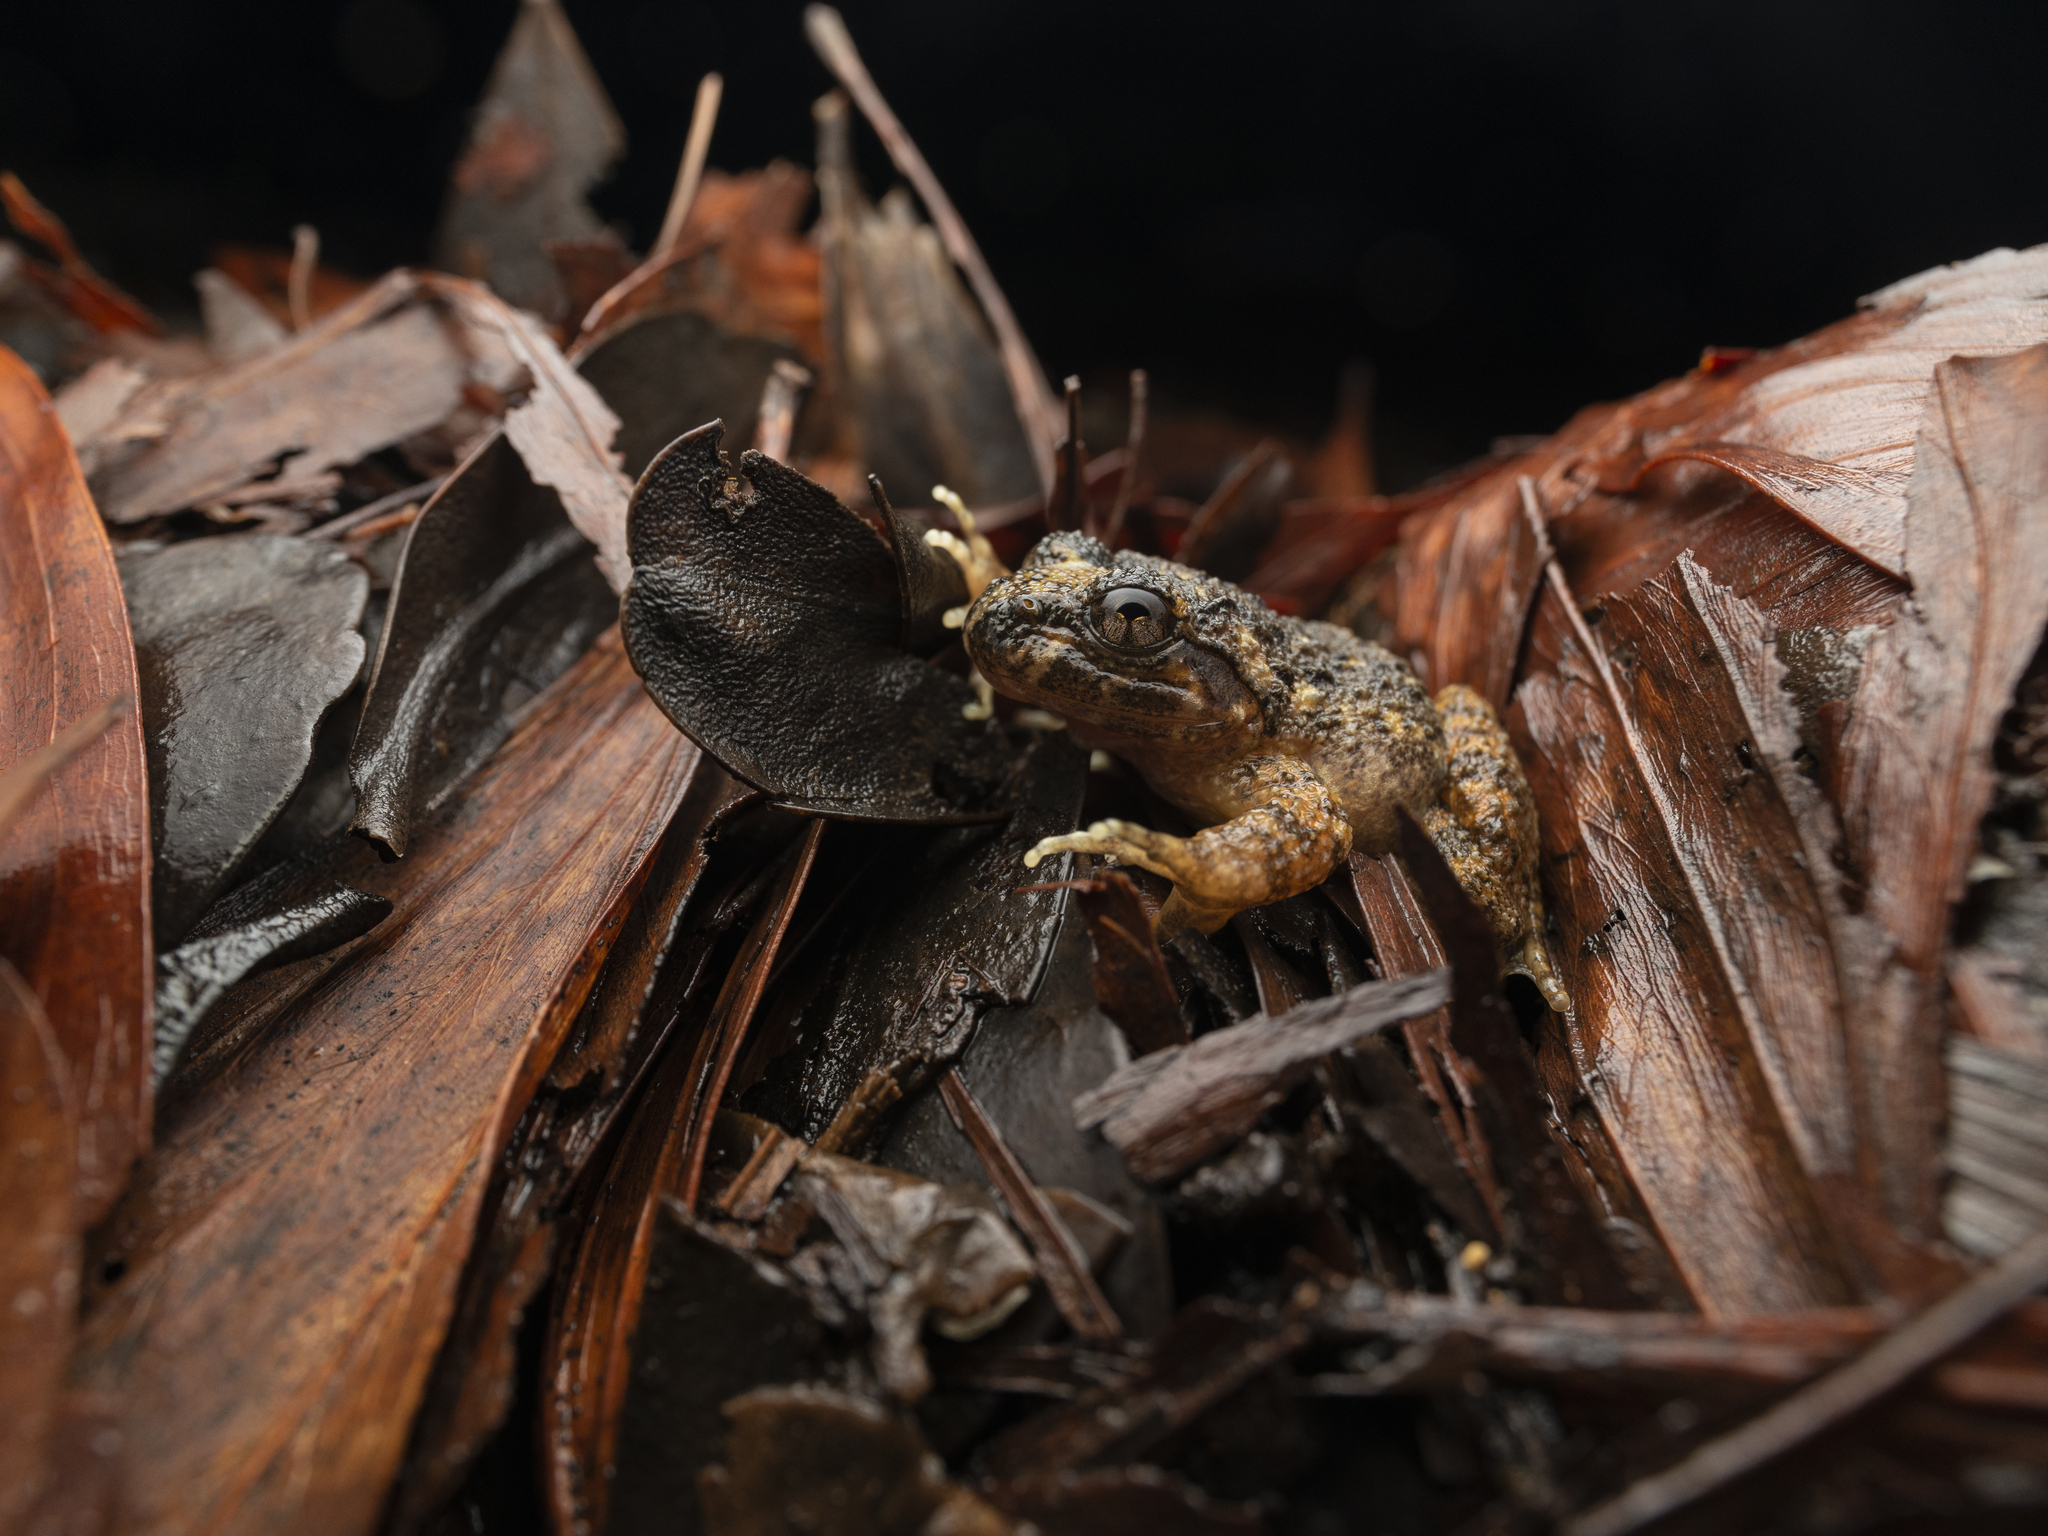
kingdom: Animalia
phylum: Chordata
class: Amphibia
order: Anura
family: Dicroglossidae
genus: Quasipaa
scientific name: Quasipaa exilispinosa
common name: Hong kong paa frog
